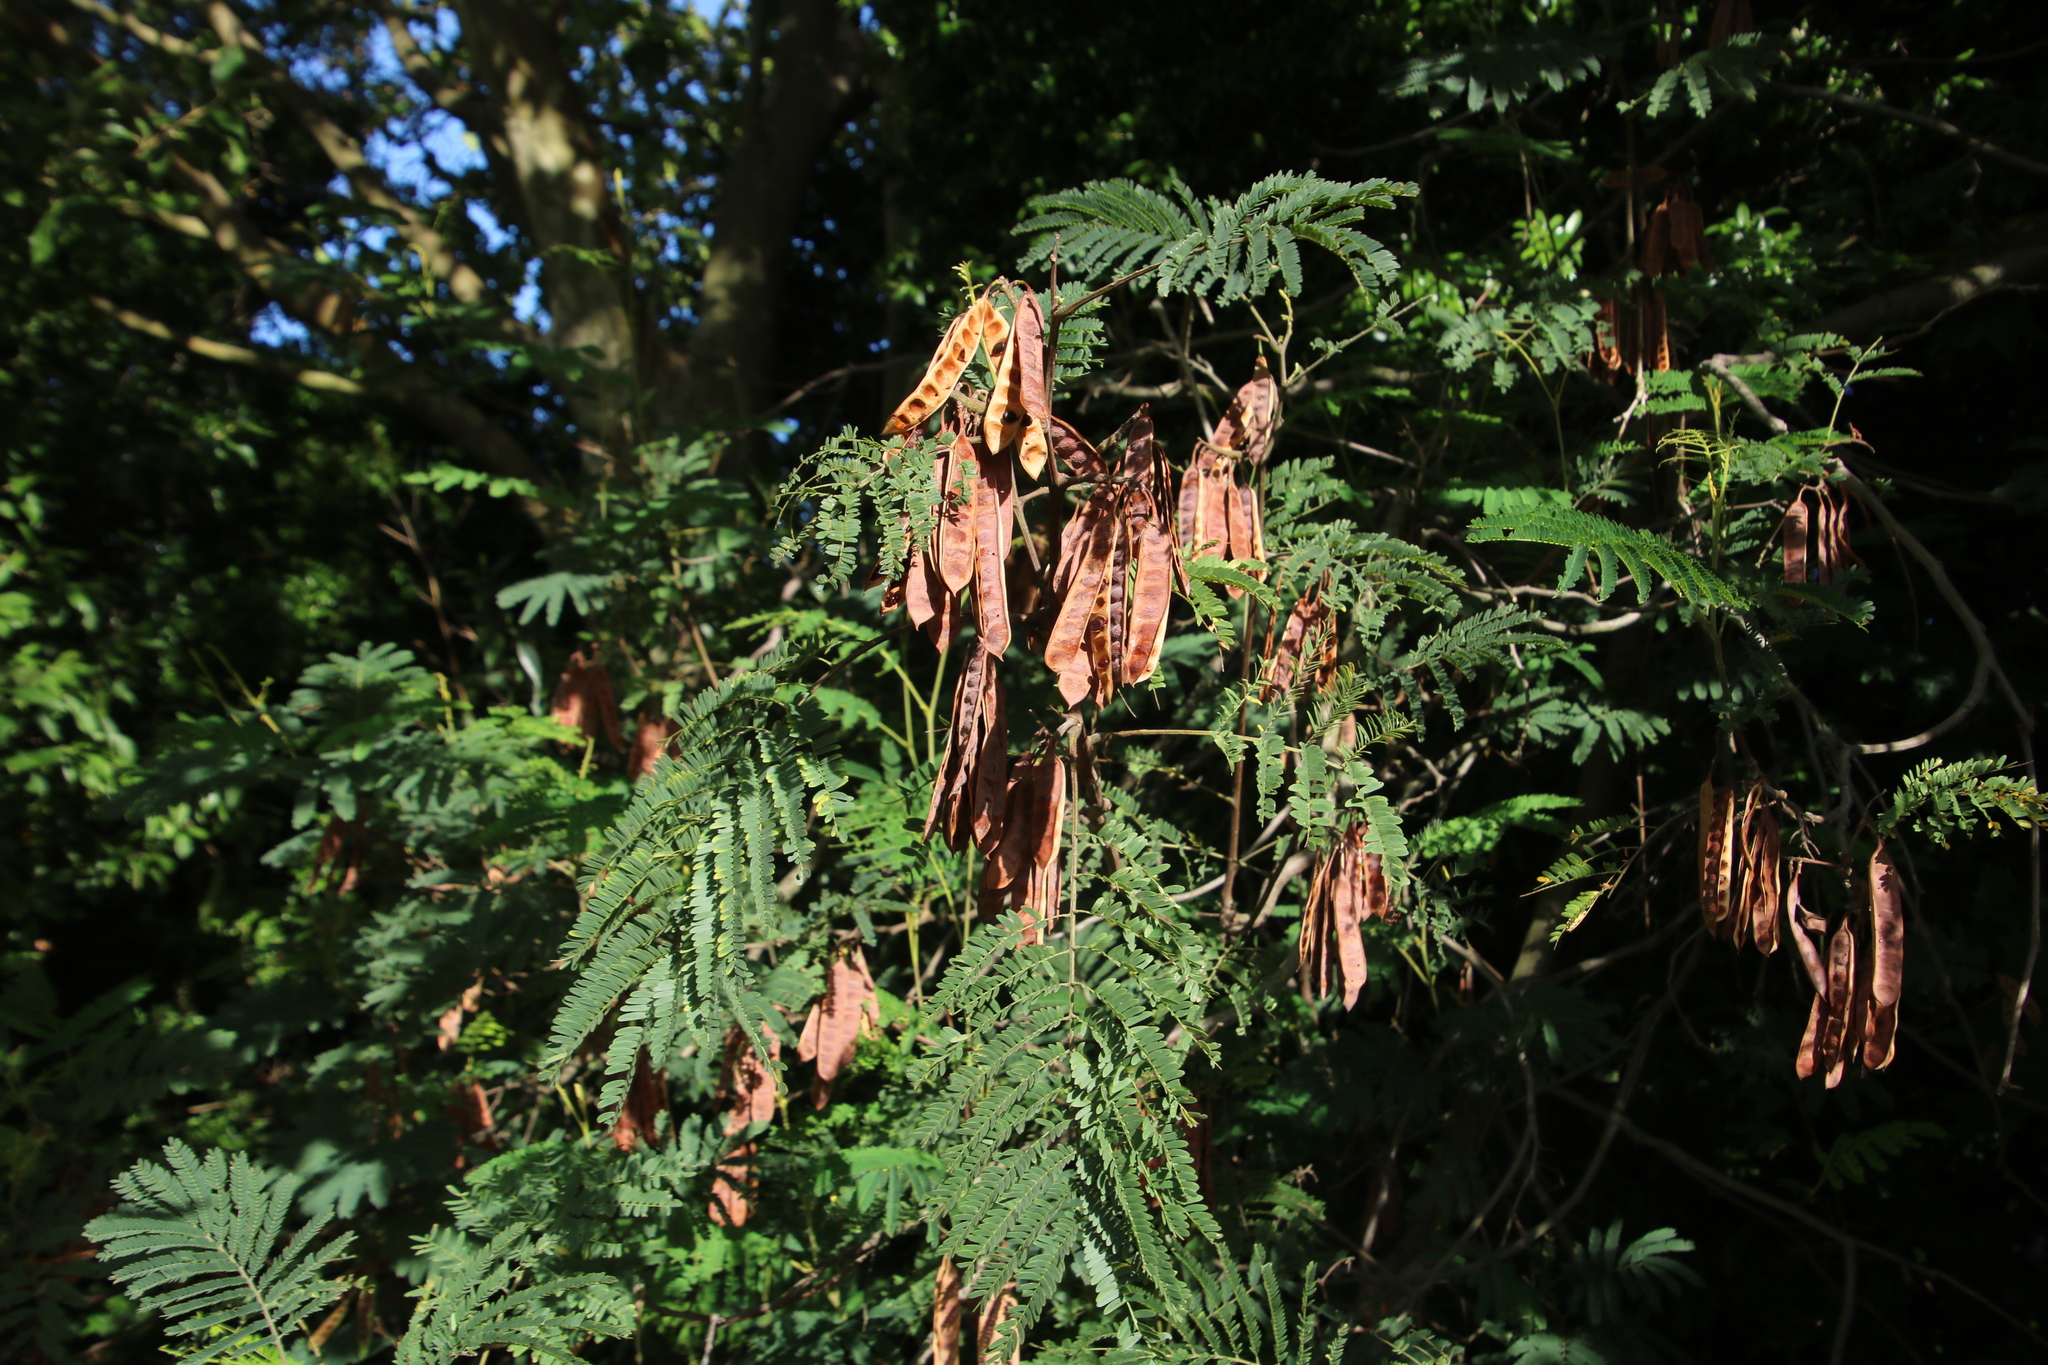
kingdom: Plantae
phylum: Tracheophyta
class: Magnoliopsida
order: Fabales
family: Fabaceae
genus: Paraserianthes
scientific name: Paraserianthes lophantha
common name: Plume albizia
